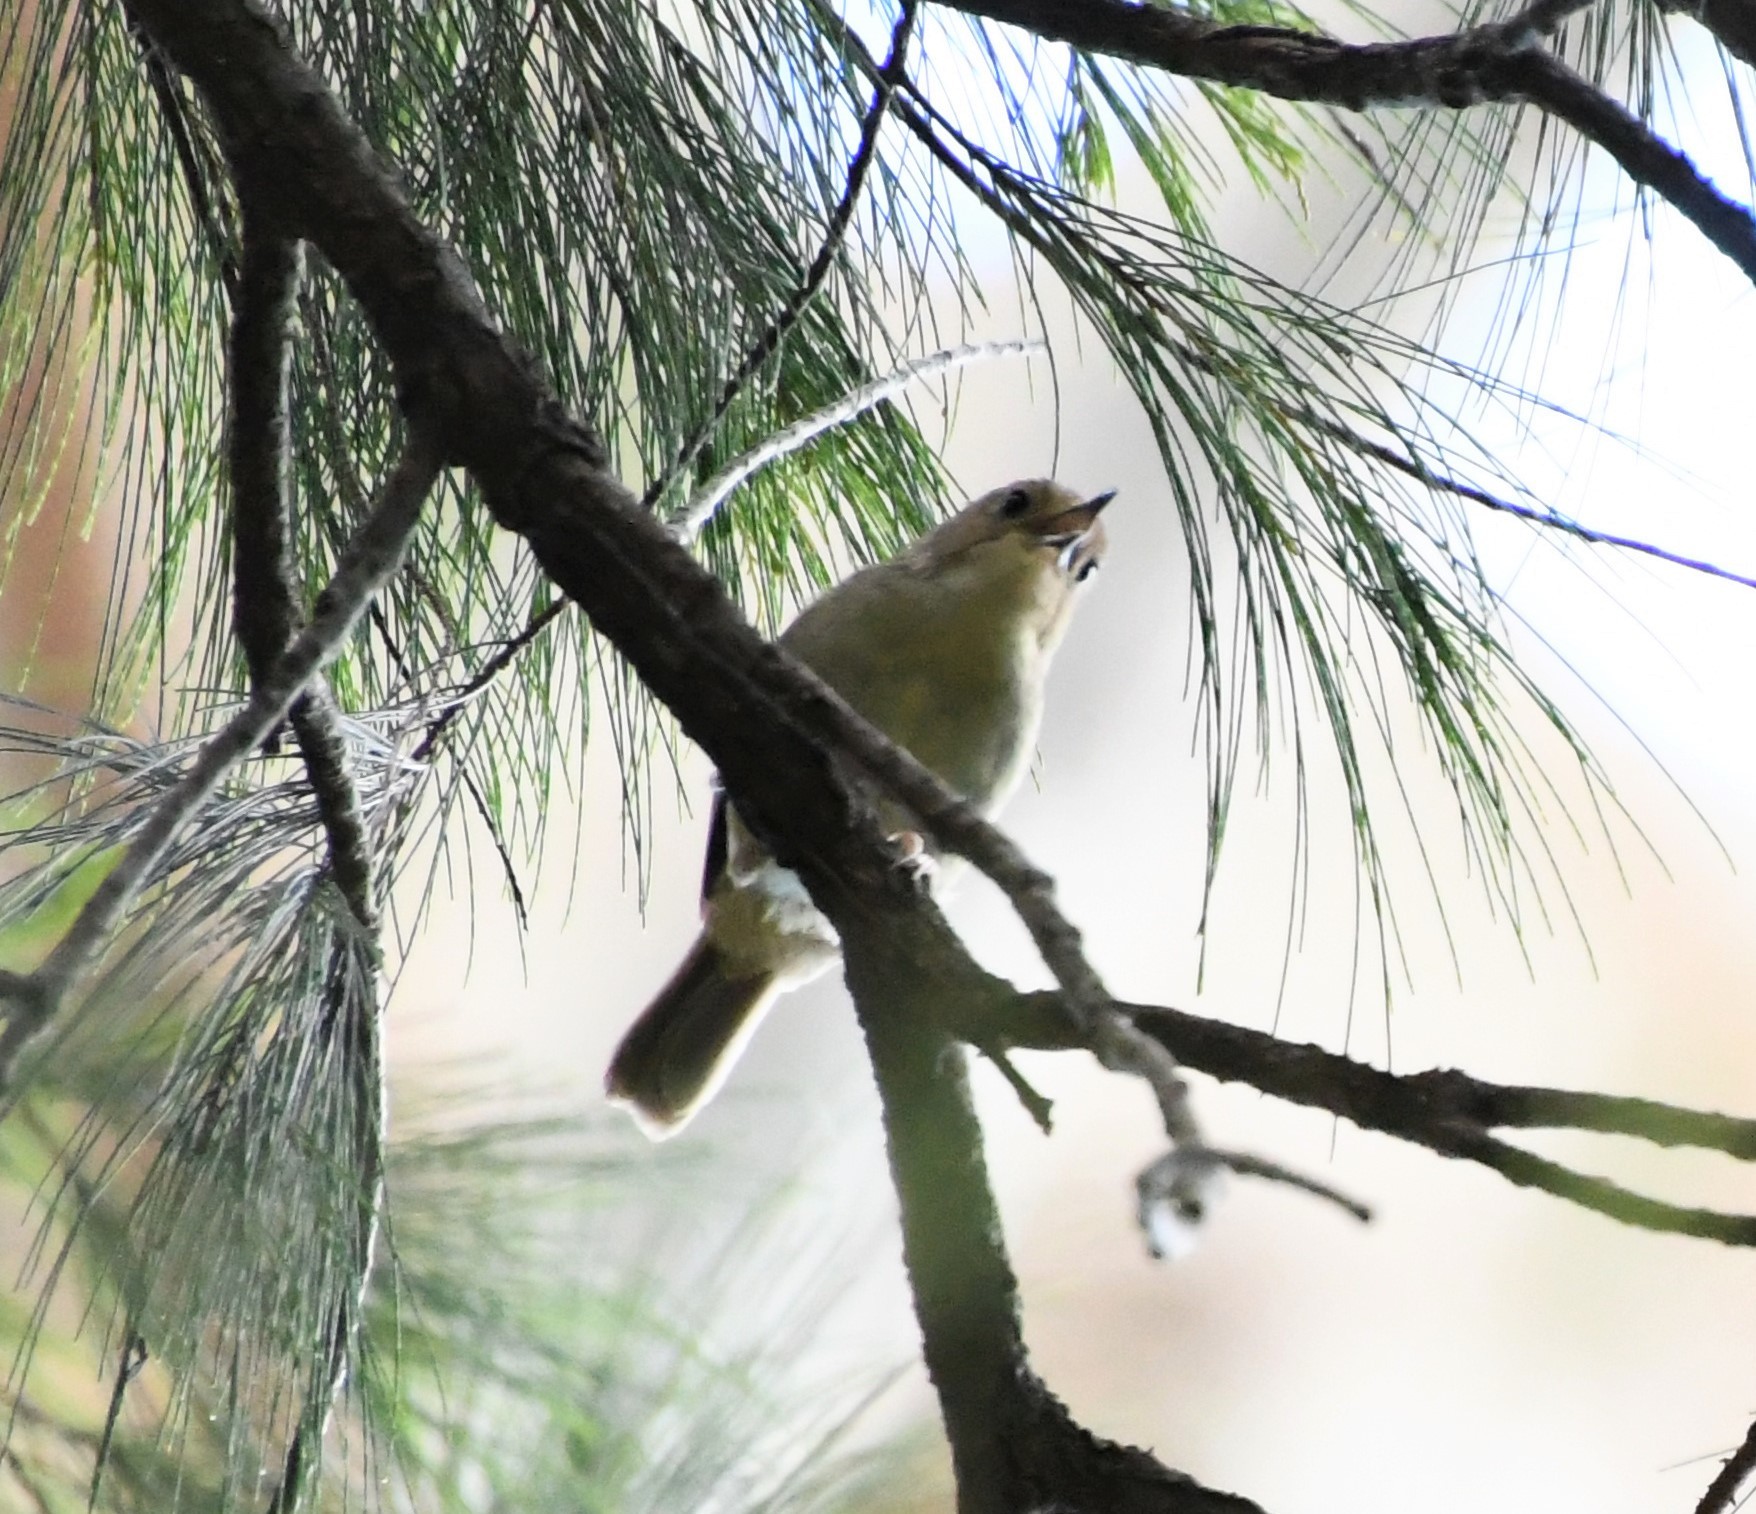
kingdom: Animalia
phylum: Chordata
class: Aves
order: Passeriformes
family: Acanthizidae
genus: Sericornis
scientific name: Sericornis magnirostra
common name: Large-billed scrubwren
